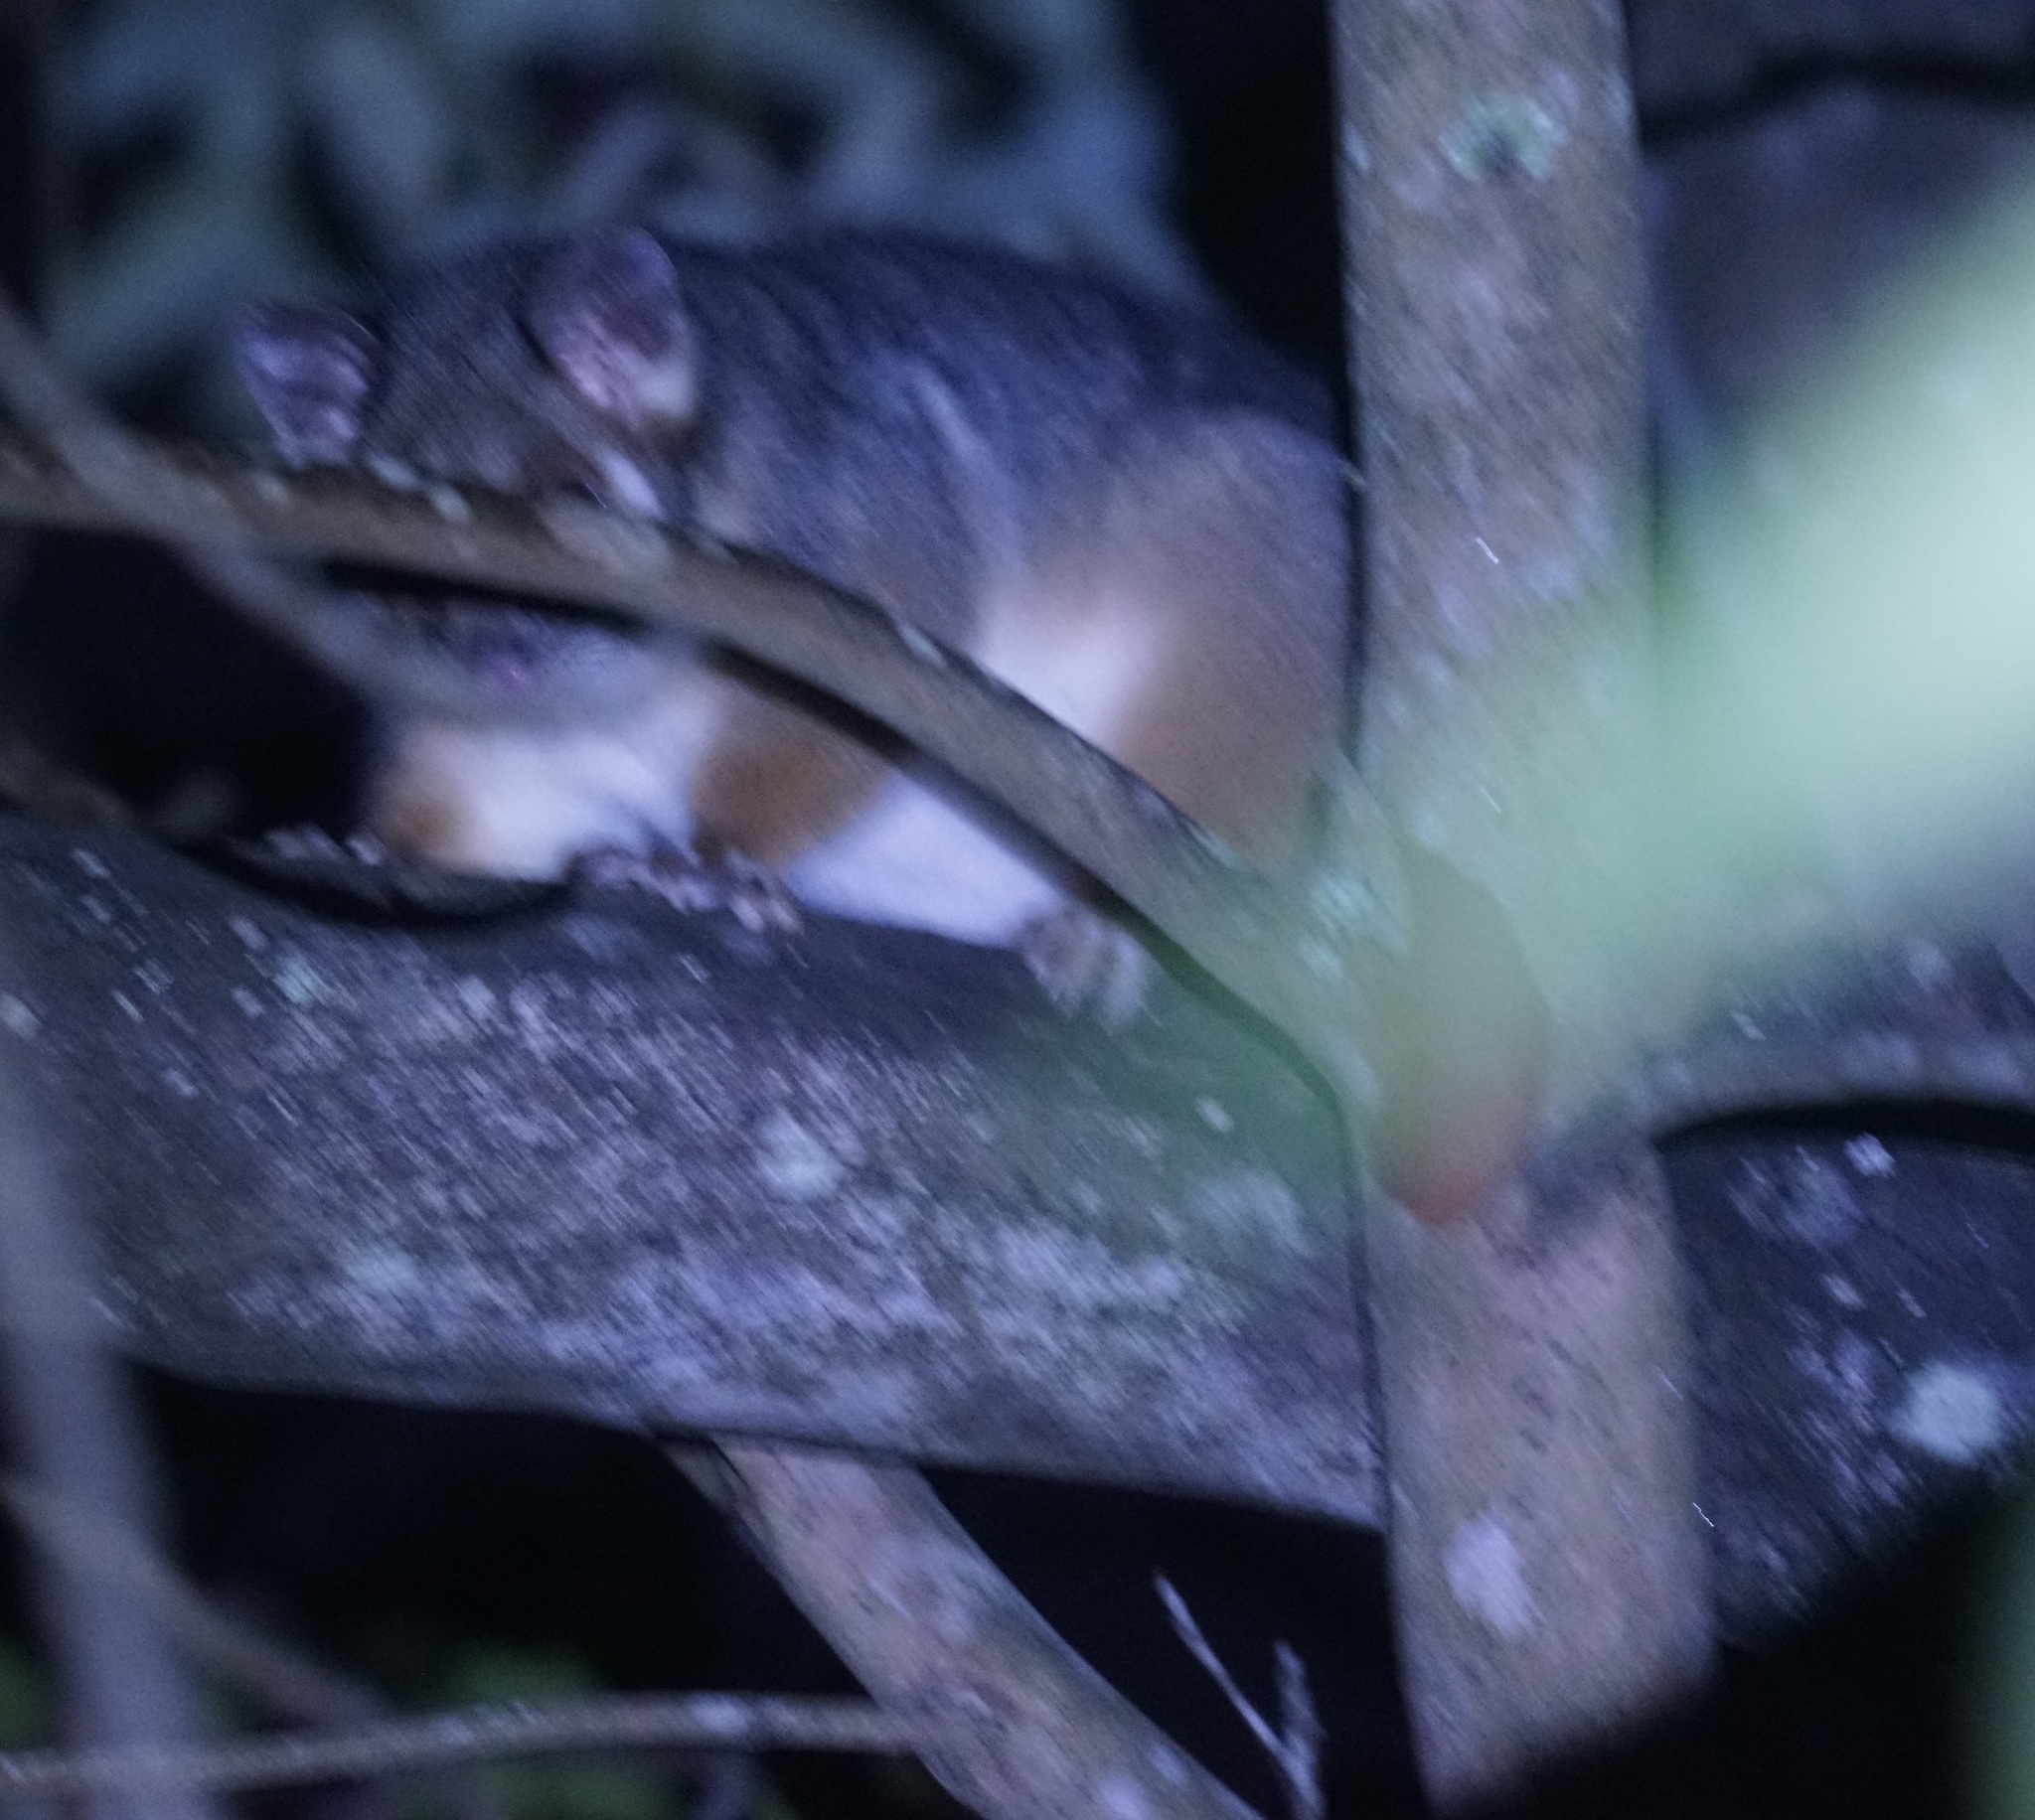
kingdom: Animalia
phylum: Chordata
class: Mammalia
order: Diprotodontia
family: Pseudocheiridae
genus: Pseudocheirus
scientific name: Pseudocheirus peregrinus
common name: Common ringtail possum
